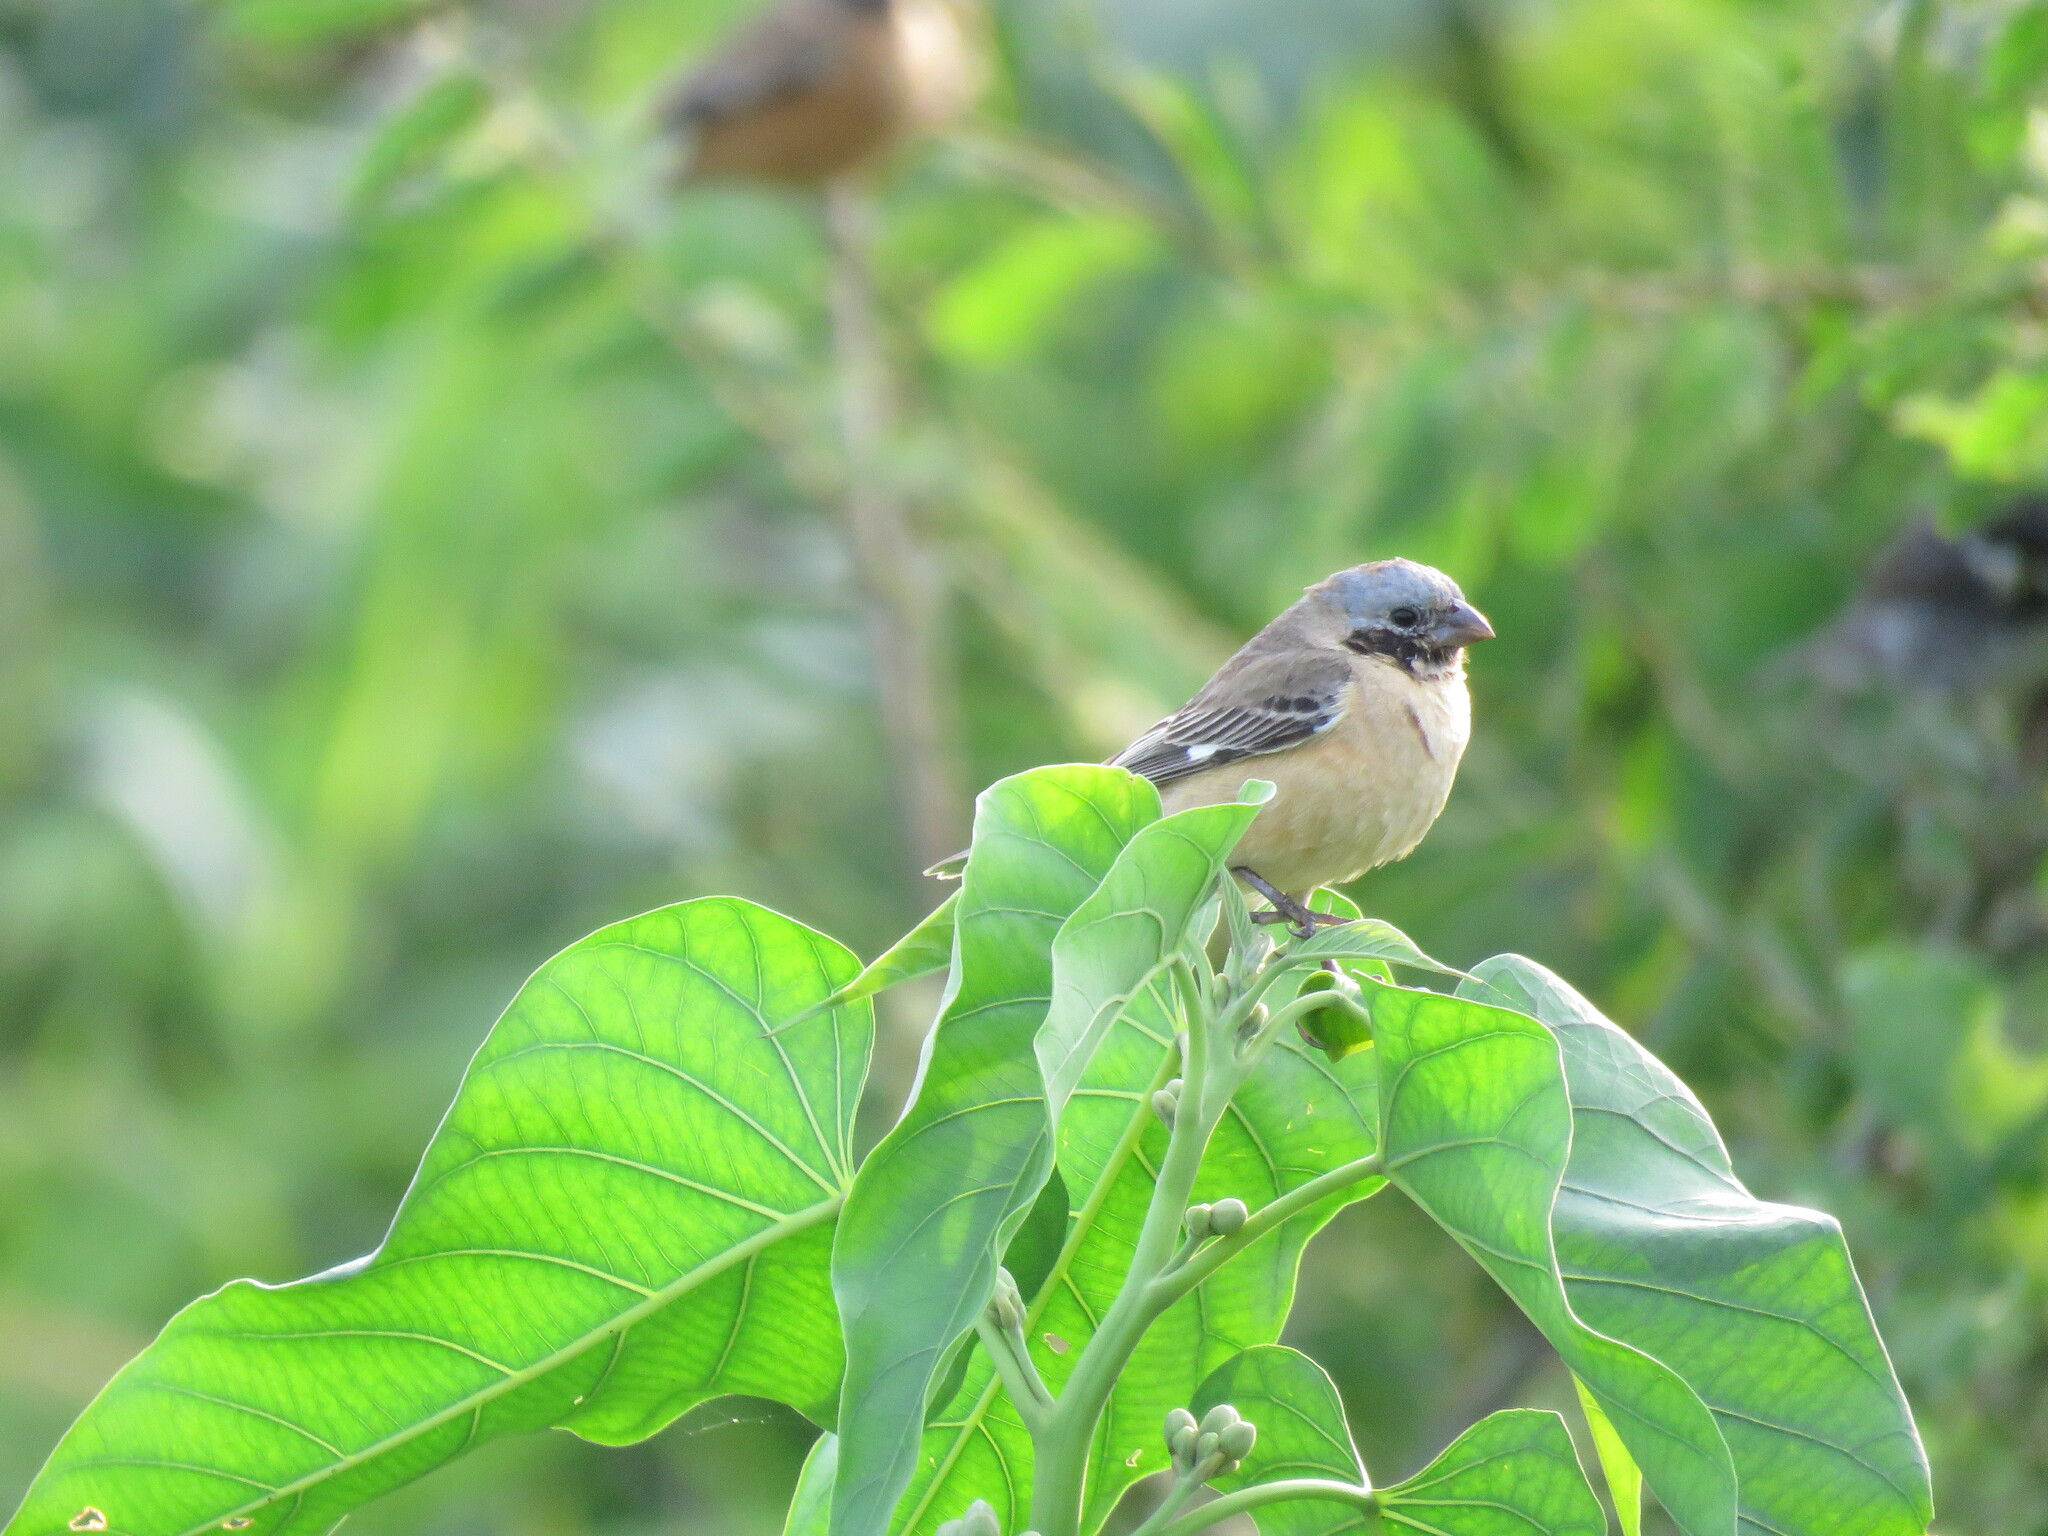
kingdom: Animalia
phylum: Chordata
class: Aves
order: Passeriformes
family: Thraupidae
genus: Sporophila
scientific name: Sporophila ruficollis
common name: Dark-throated seedeater
